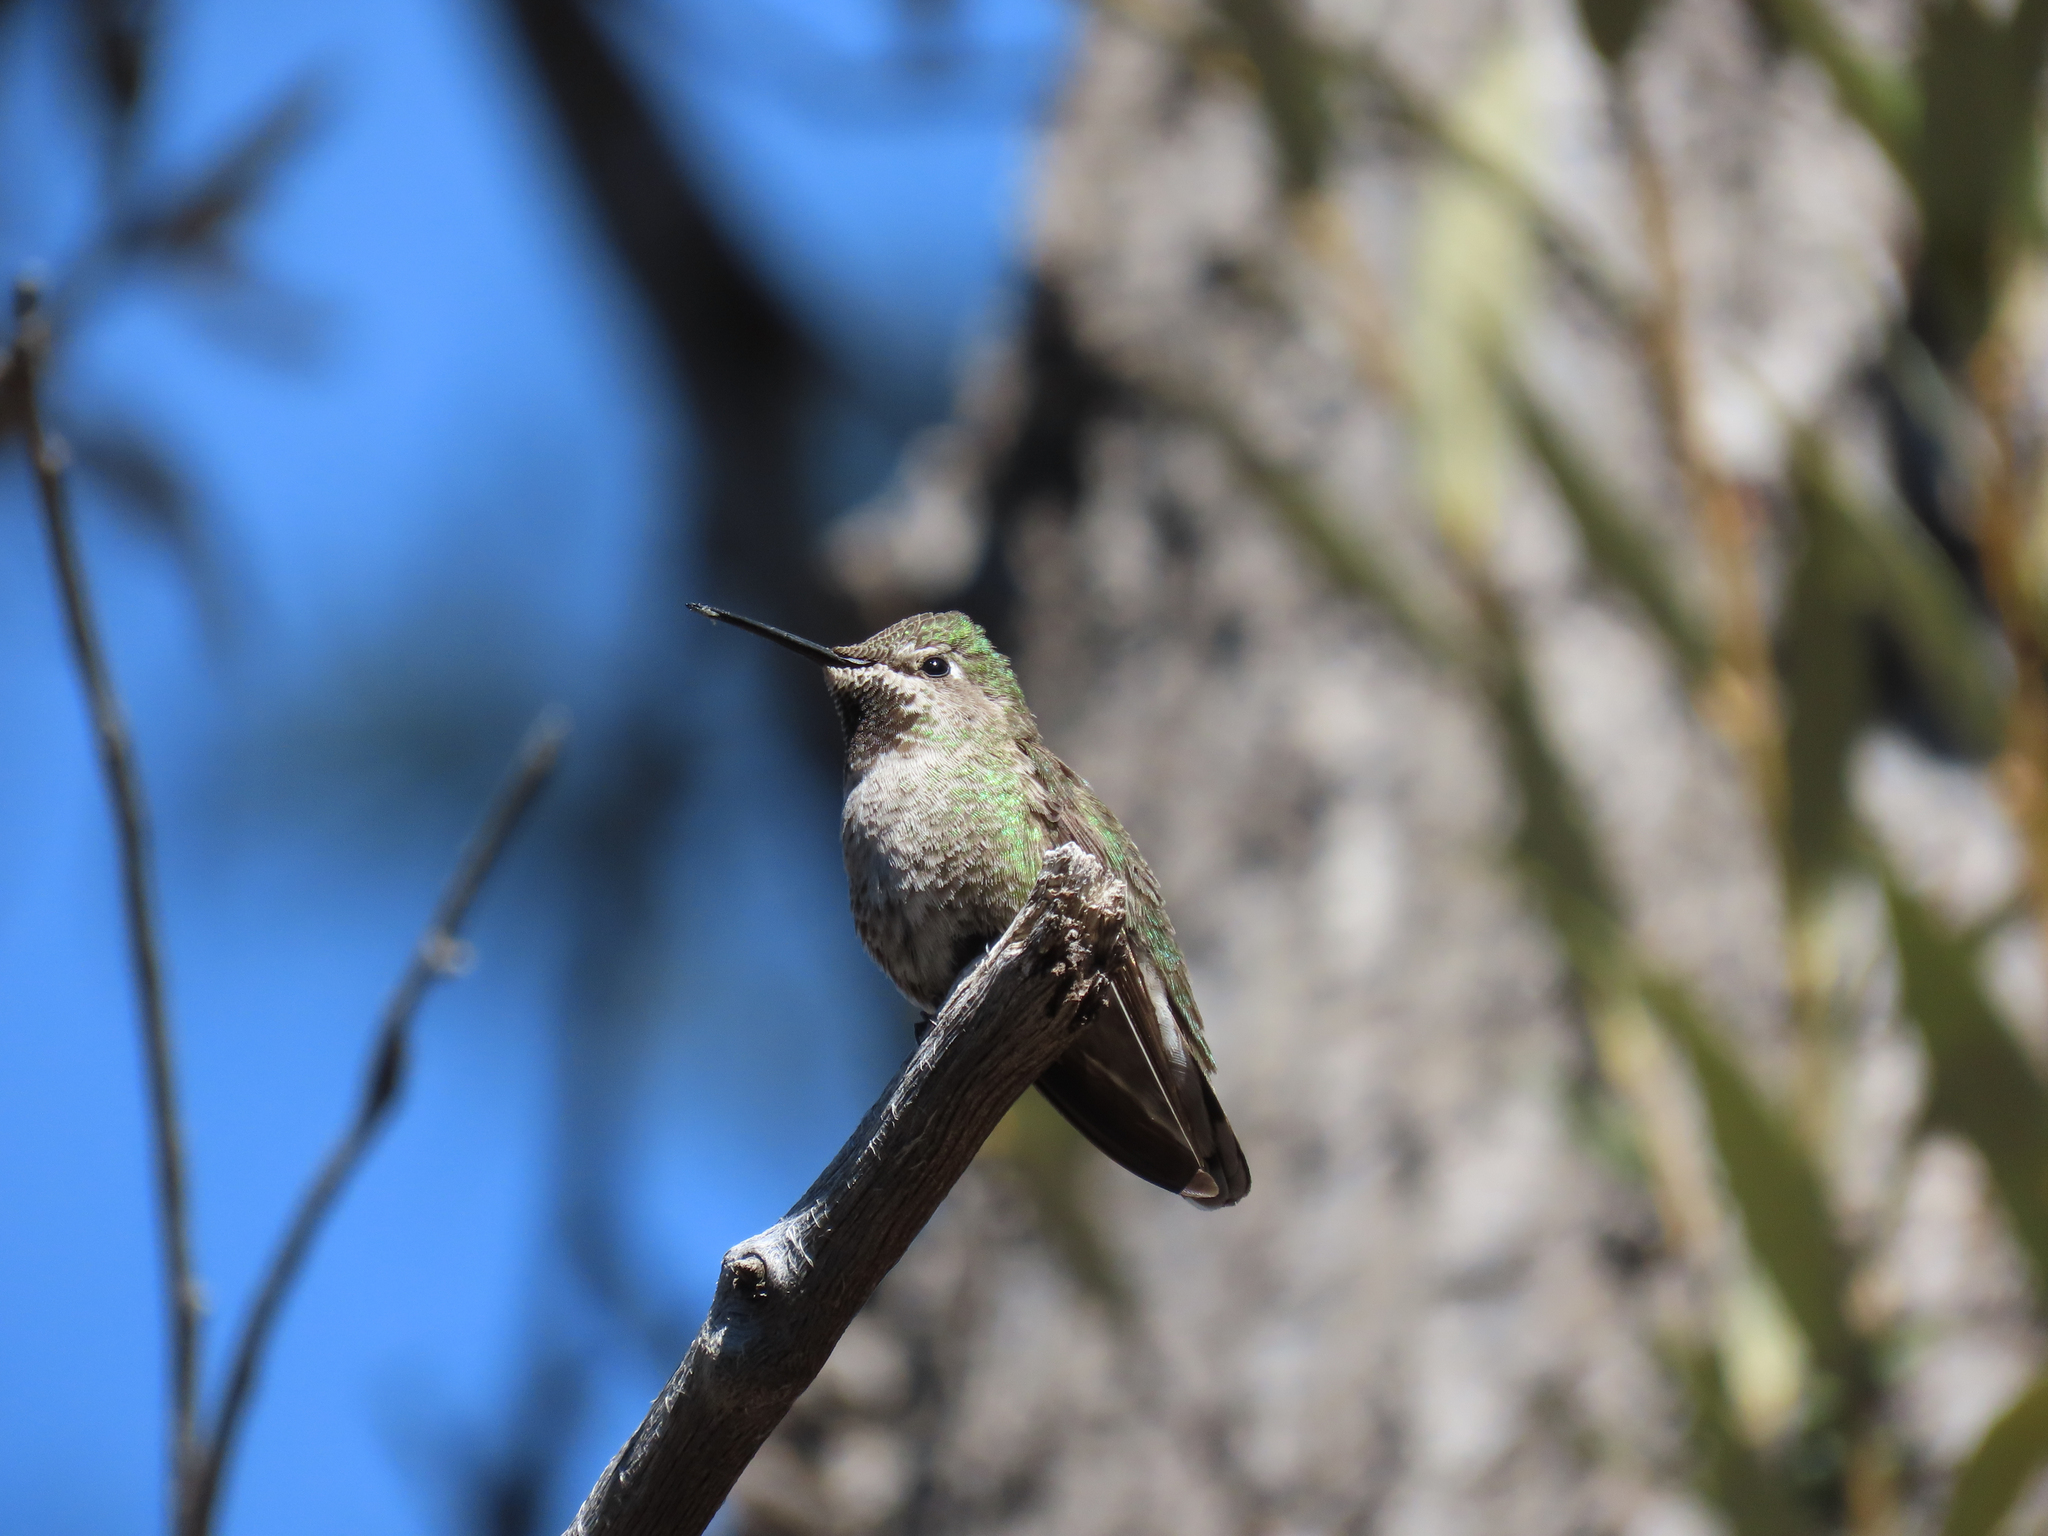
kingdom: Animalia
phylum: Chordata
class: Aves
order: Apodiformes
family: Trochilidae
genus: Calypte
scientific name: Calypte anna
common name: Anna's hummingbird
